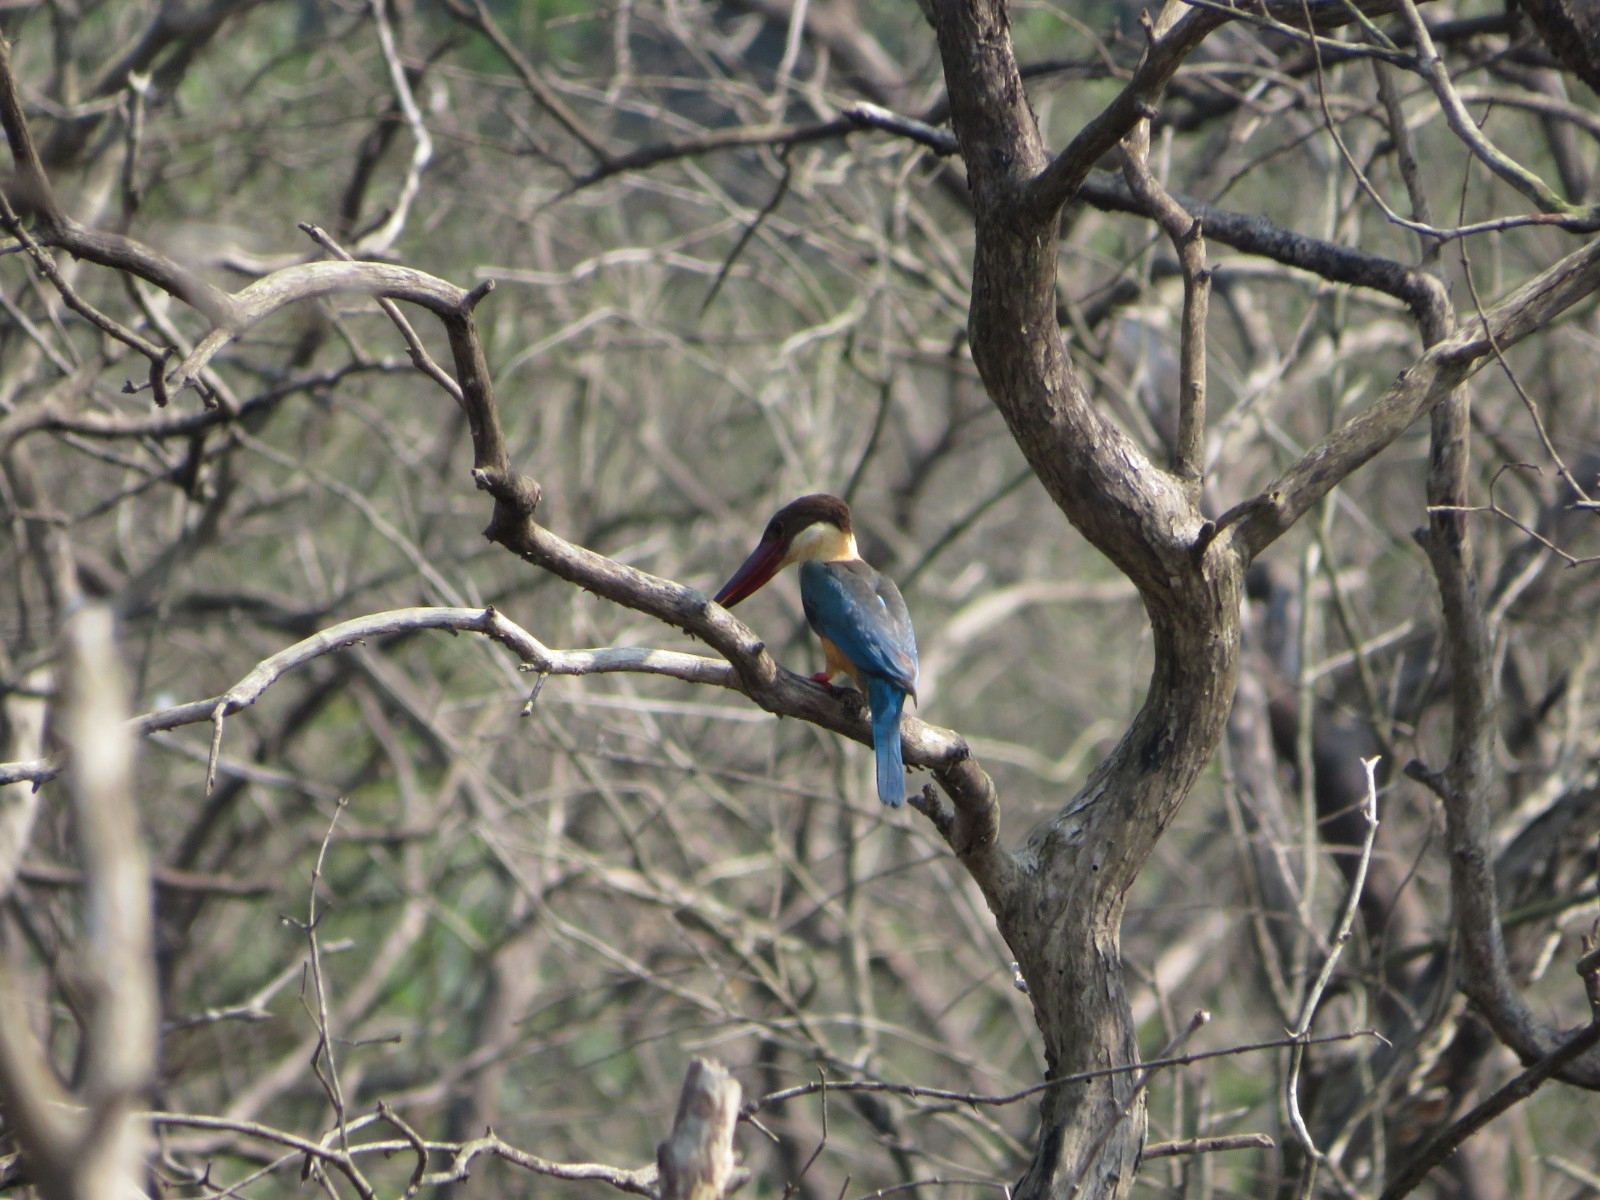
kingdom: Animalia
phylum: Chordata
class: Aves
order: Coraciiformes
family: Alcedinidae
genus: Pelargopsis
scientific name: Pelargopsis capensis
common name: Stork-billed kingfisher
